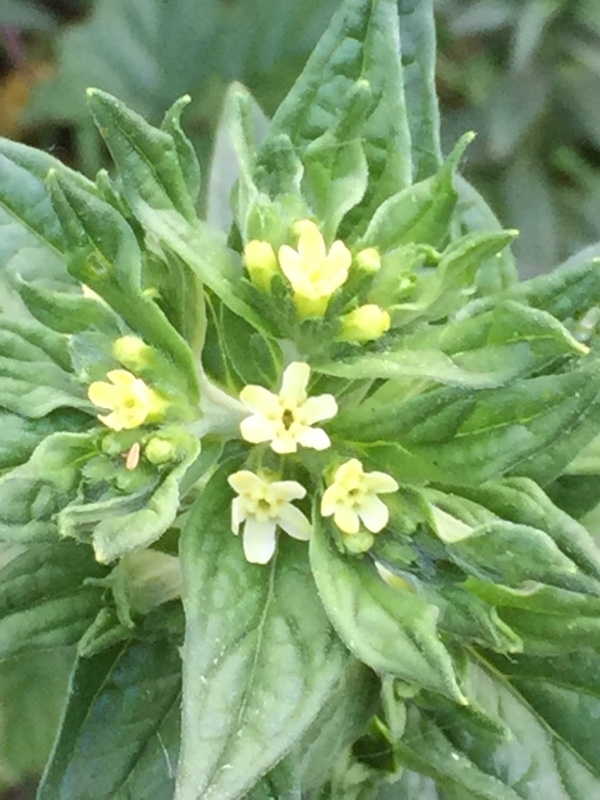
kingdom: Plantae
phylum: Tracheophyta
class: Magnoliopsida
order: Boraginales
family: Boraginaceae
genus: Lithospermum
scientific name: Lithospermum officinale
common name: Common gromwell
